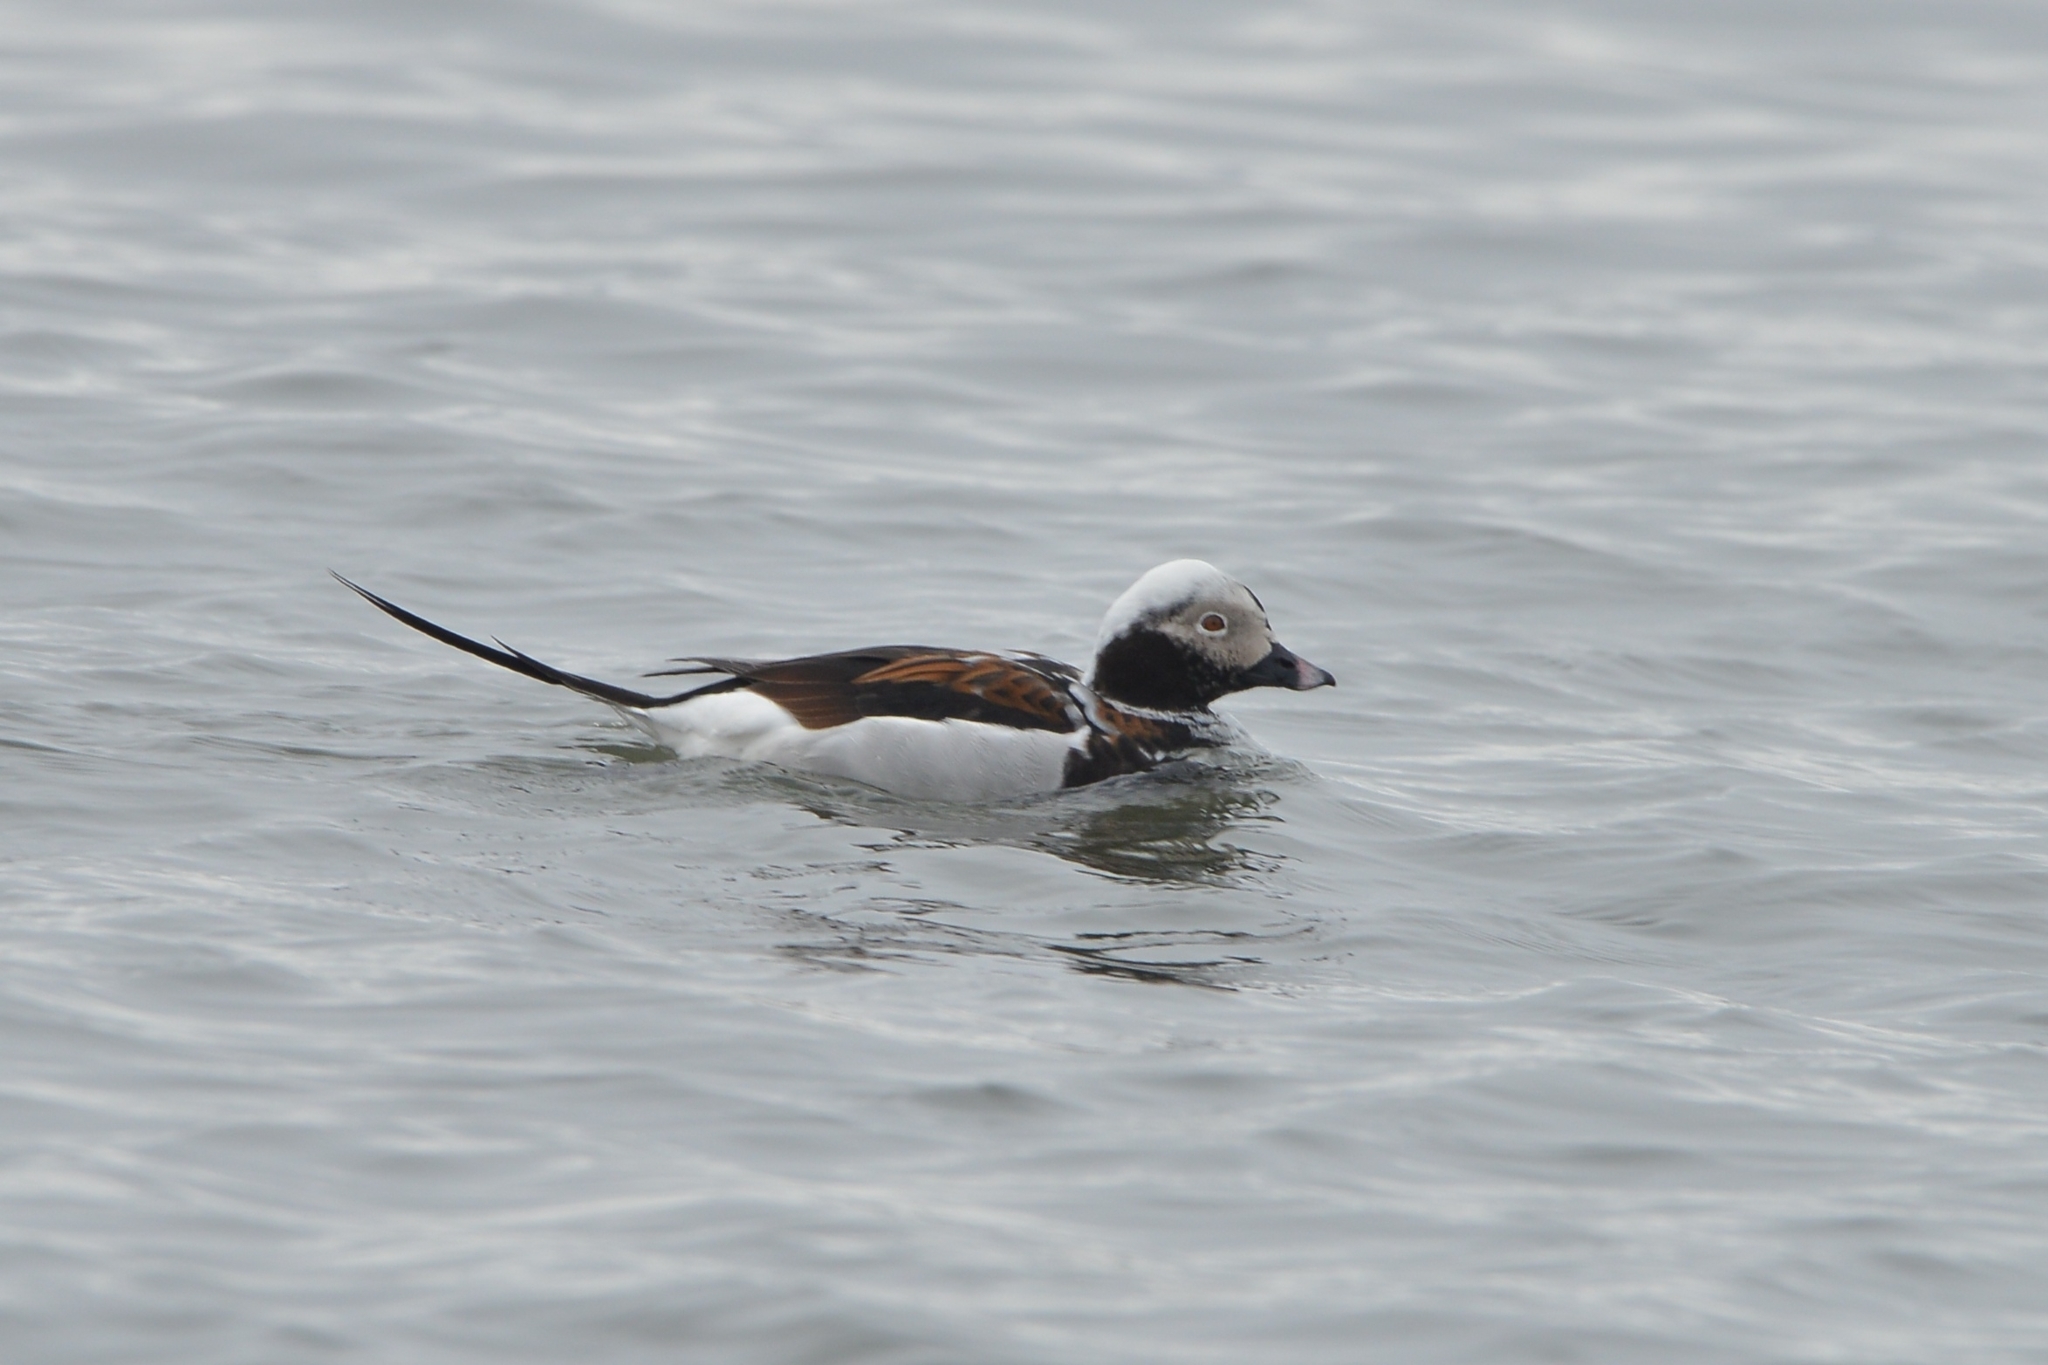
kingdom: Animalia
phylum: Chordata
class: Aves
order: Anseriformes
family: Anatidae
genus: Clangula
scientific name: Clangula hyemalis
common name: Long-tailed duck
